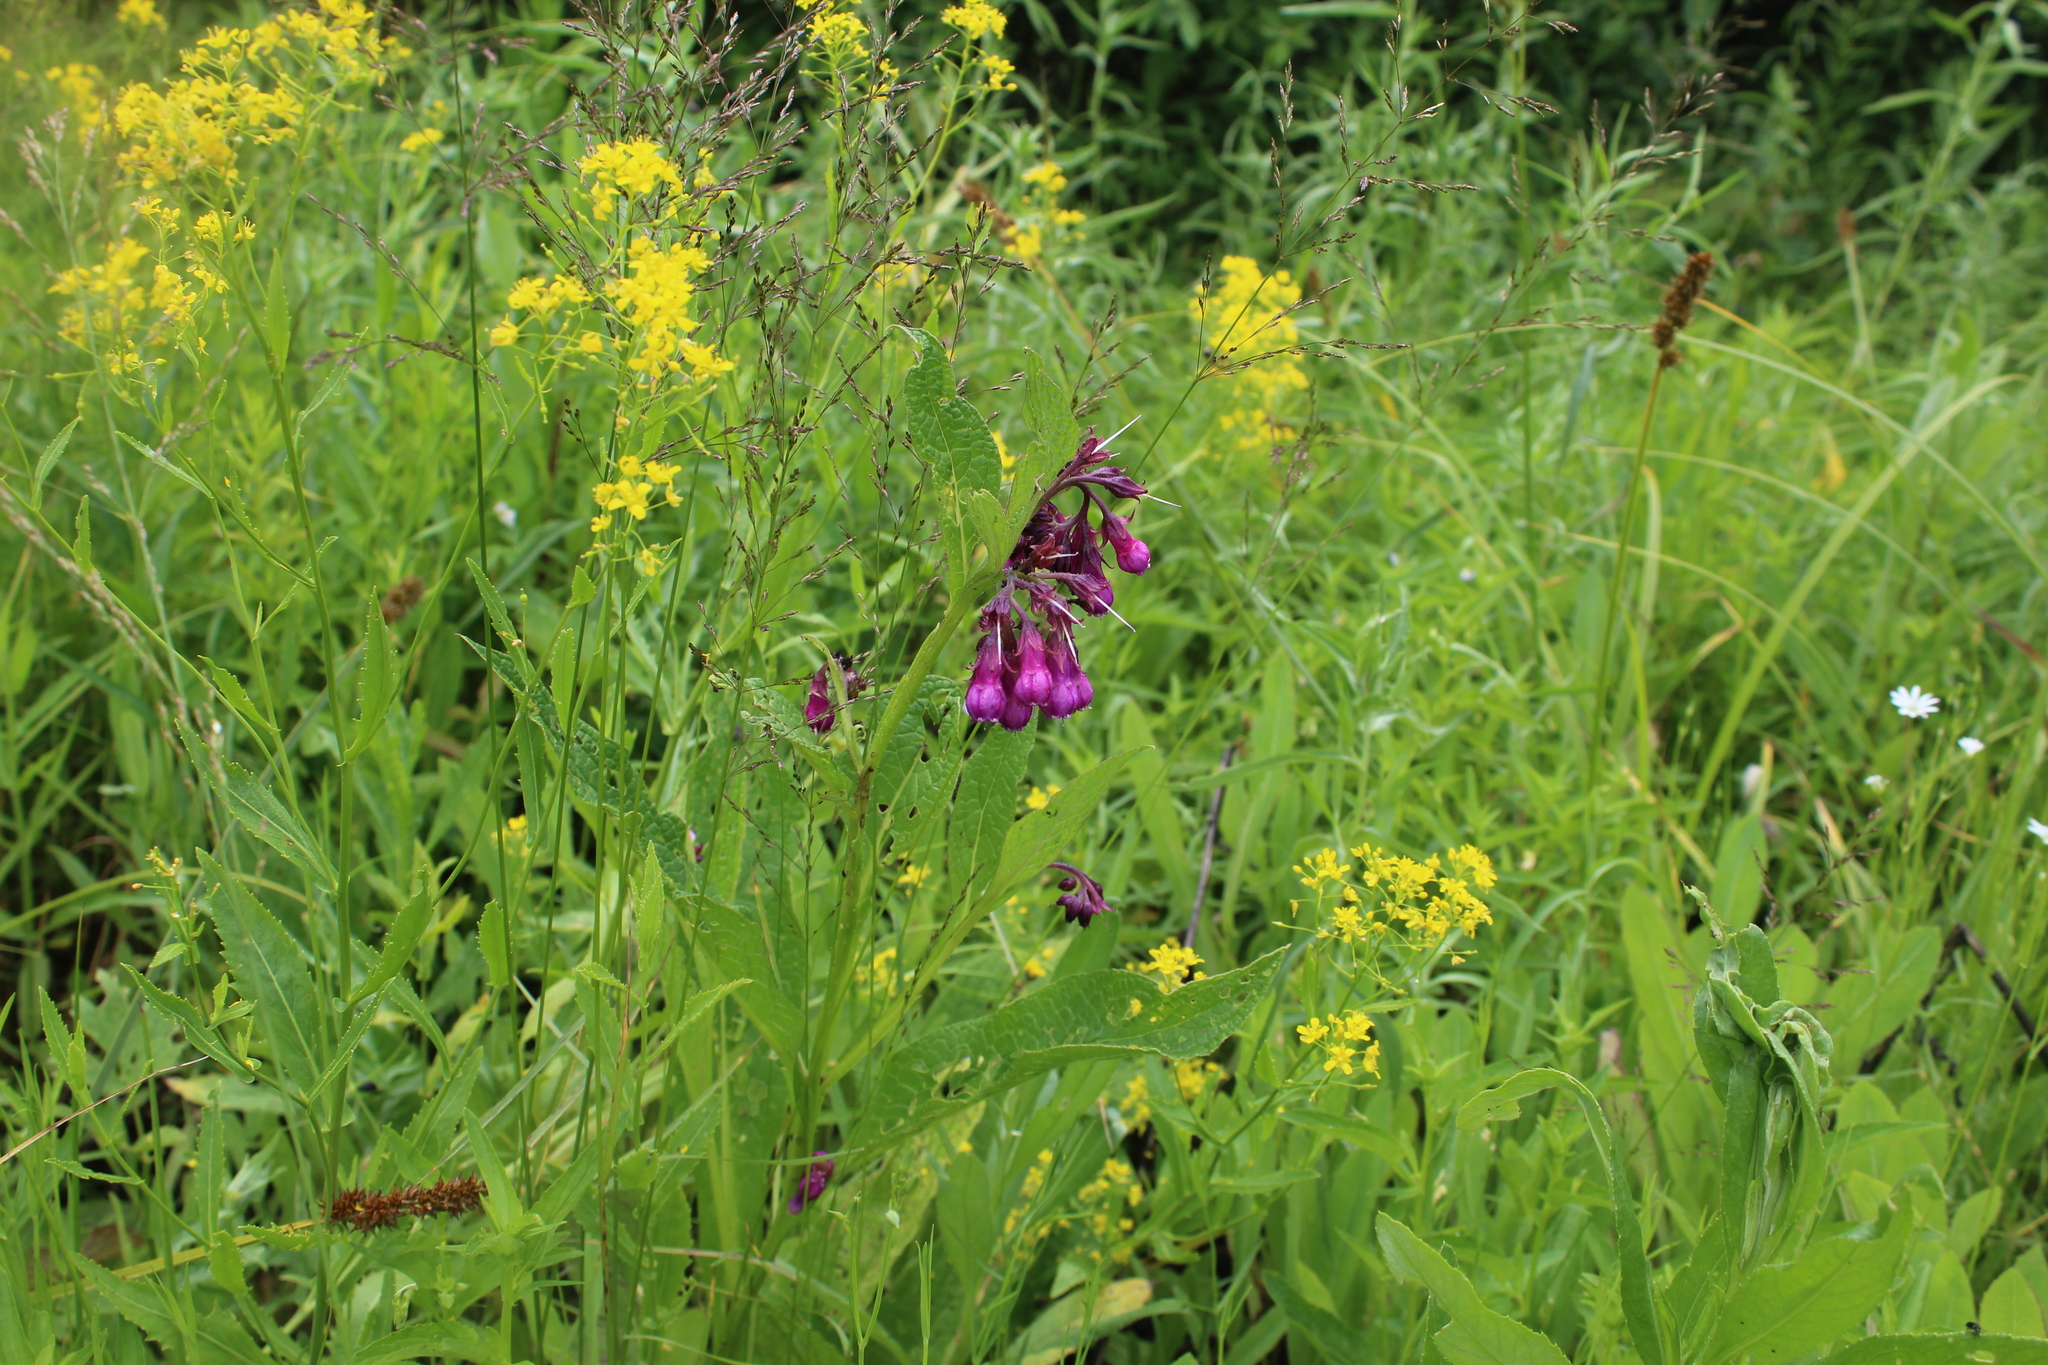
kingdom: Plantae
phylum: Tracheophyta
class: Magnoliopsida
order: Boraginales
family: Boraginaceae
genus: Symphytum
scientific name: Symphytum officinale
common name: Common comfrey
